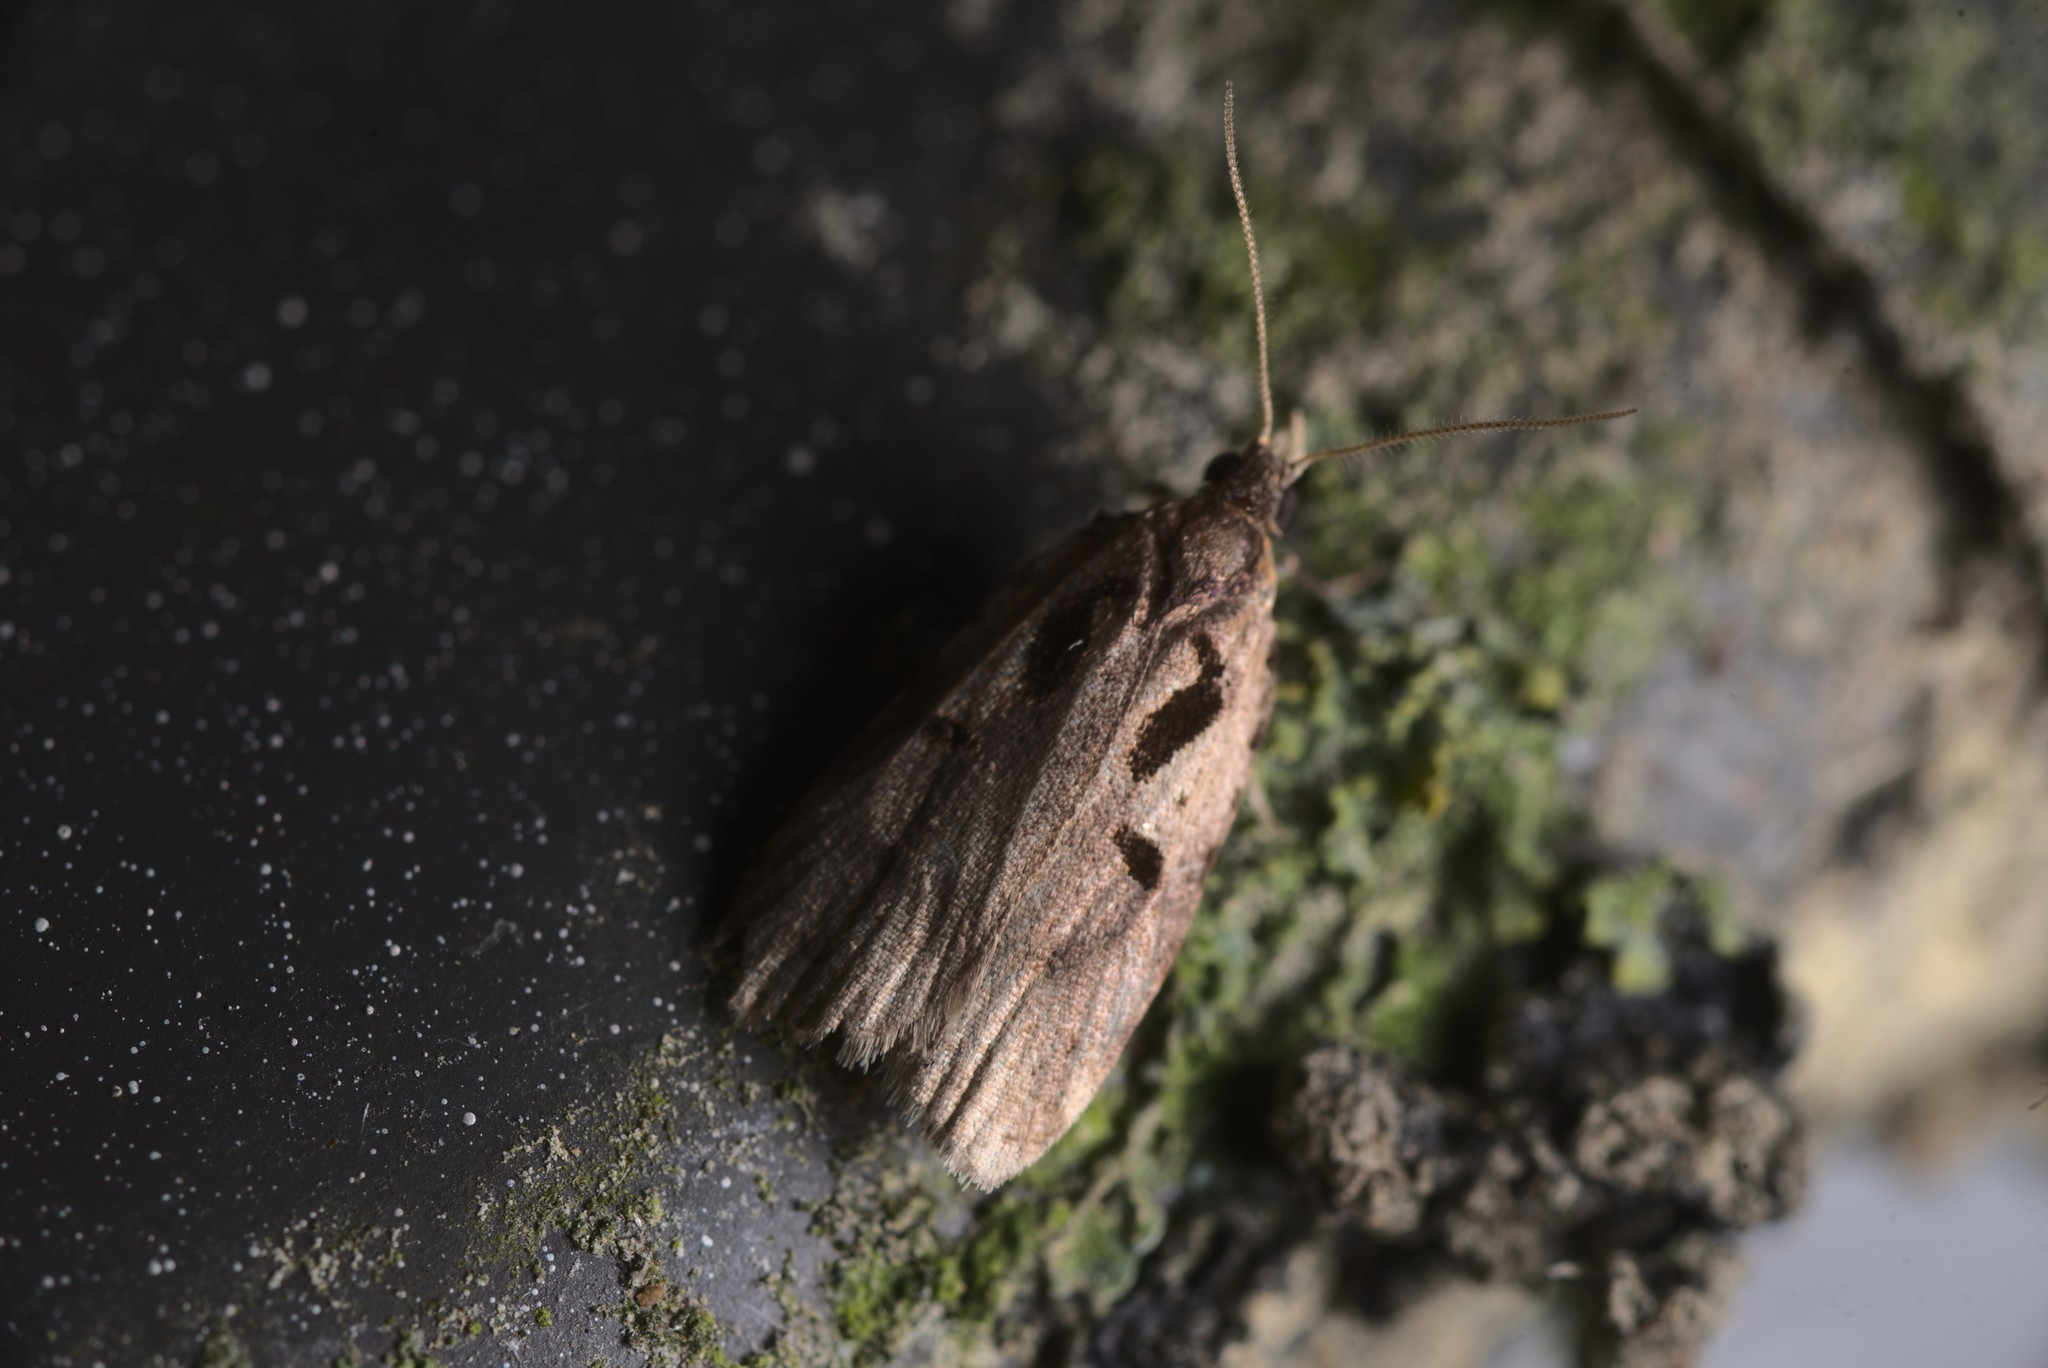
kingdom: Animalia
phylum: Arthropoda
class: Insecta
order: Lepidoptera
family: Tortricidae
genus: Cnephasia
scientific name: Cnephasia jactatana
